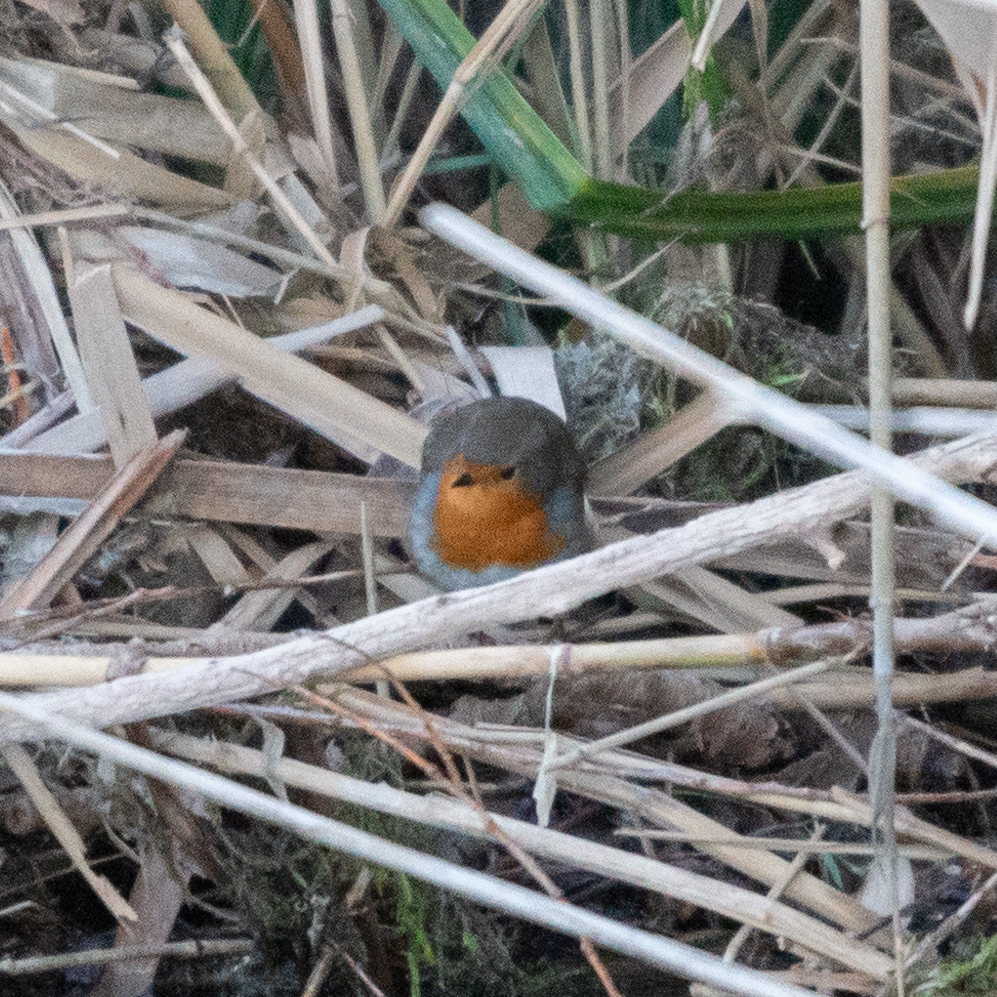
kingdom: Animalia
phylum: Chordata
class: Aves
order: Passeriformes
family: Muscicapidae
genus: Erithacus
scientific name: Erithacus rubecula
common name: European robin
